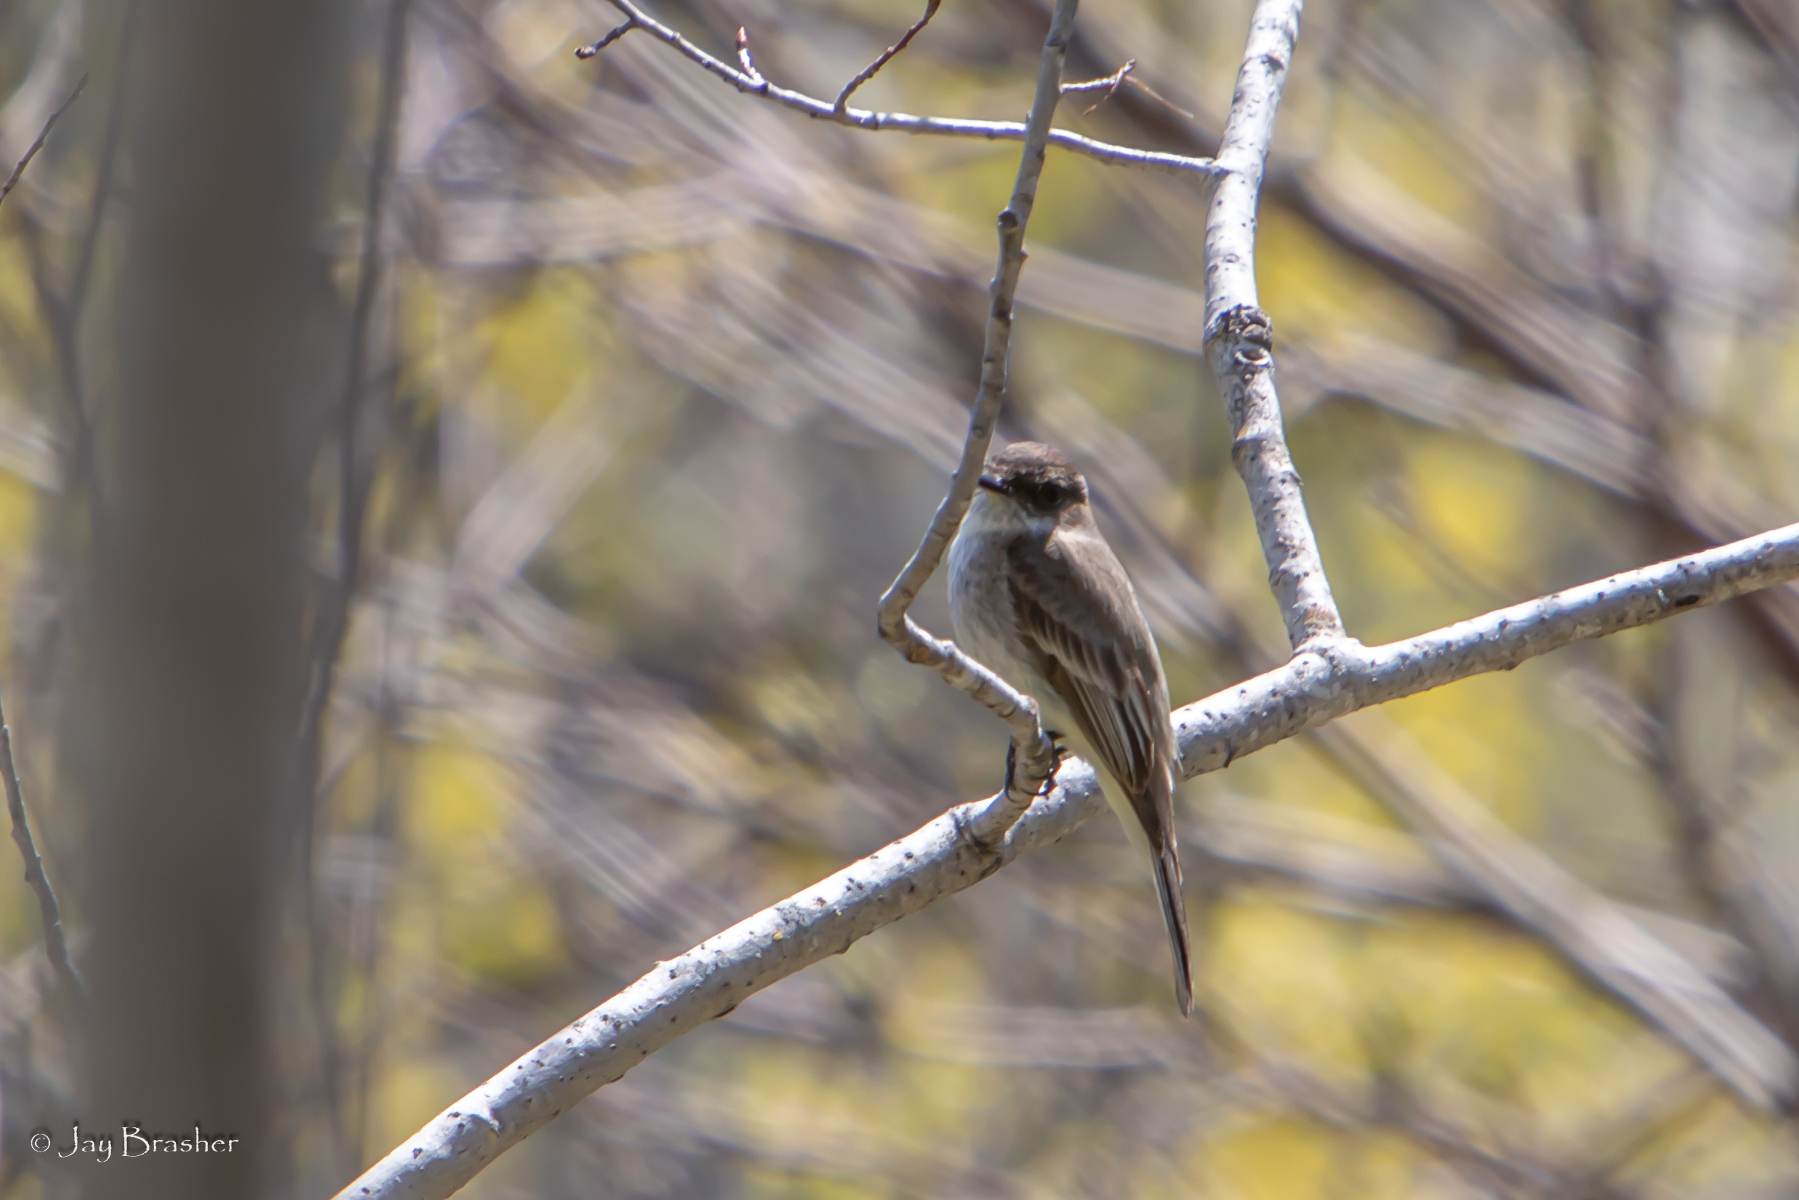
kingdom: Animalia
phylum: Chordata
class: Aves
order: Passeriformes
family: Tyrannidae
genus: Sayornis
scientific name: Sayornis phoebe
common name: Eastern phoebe
